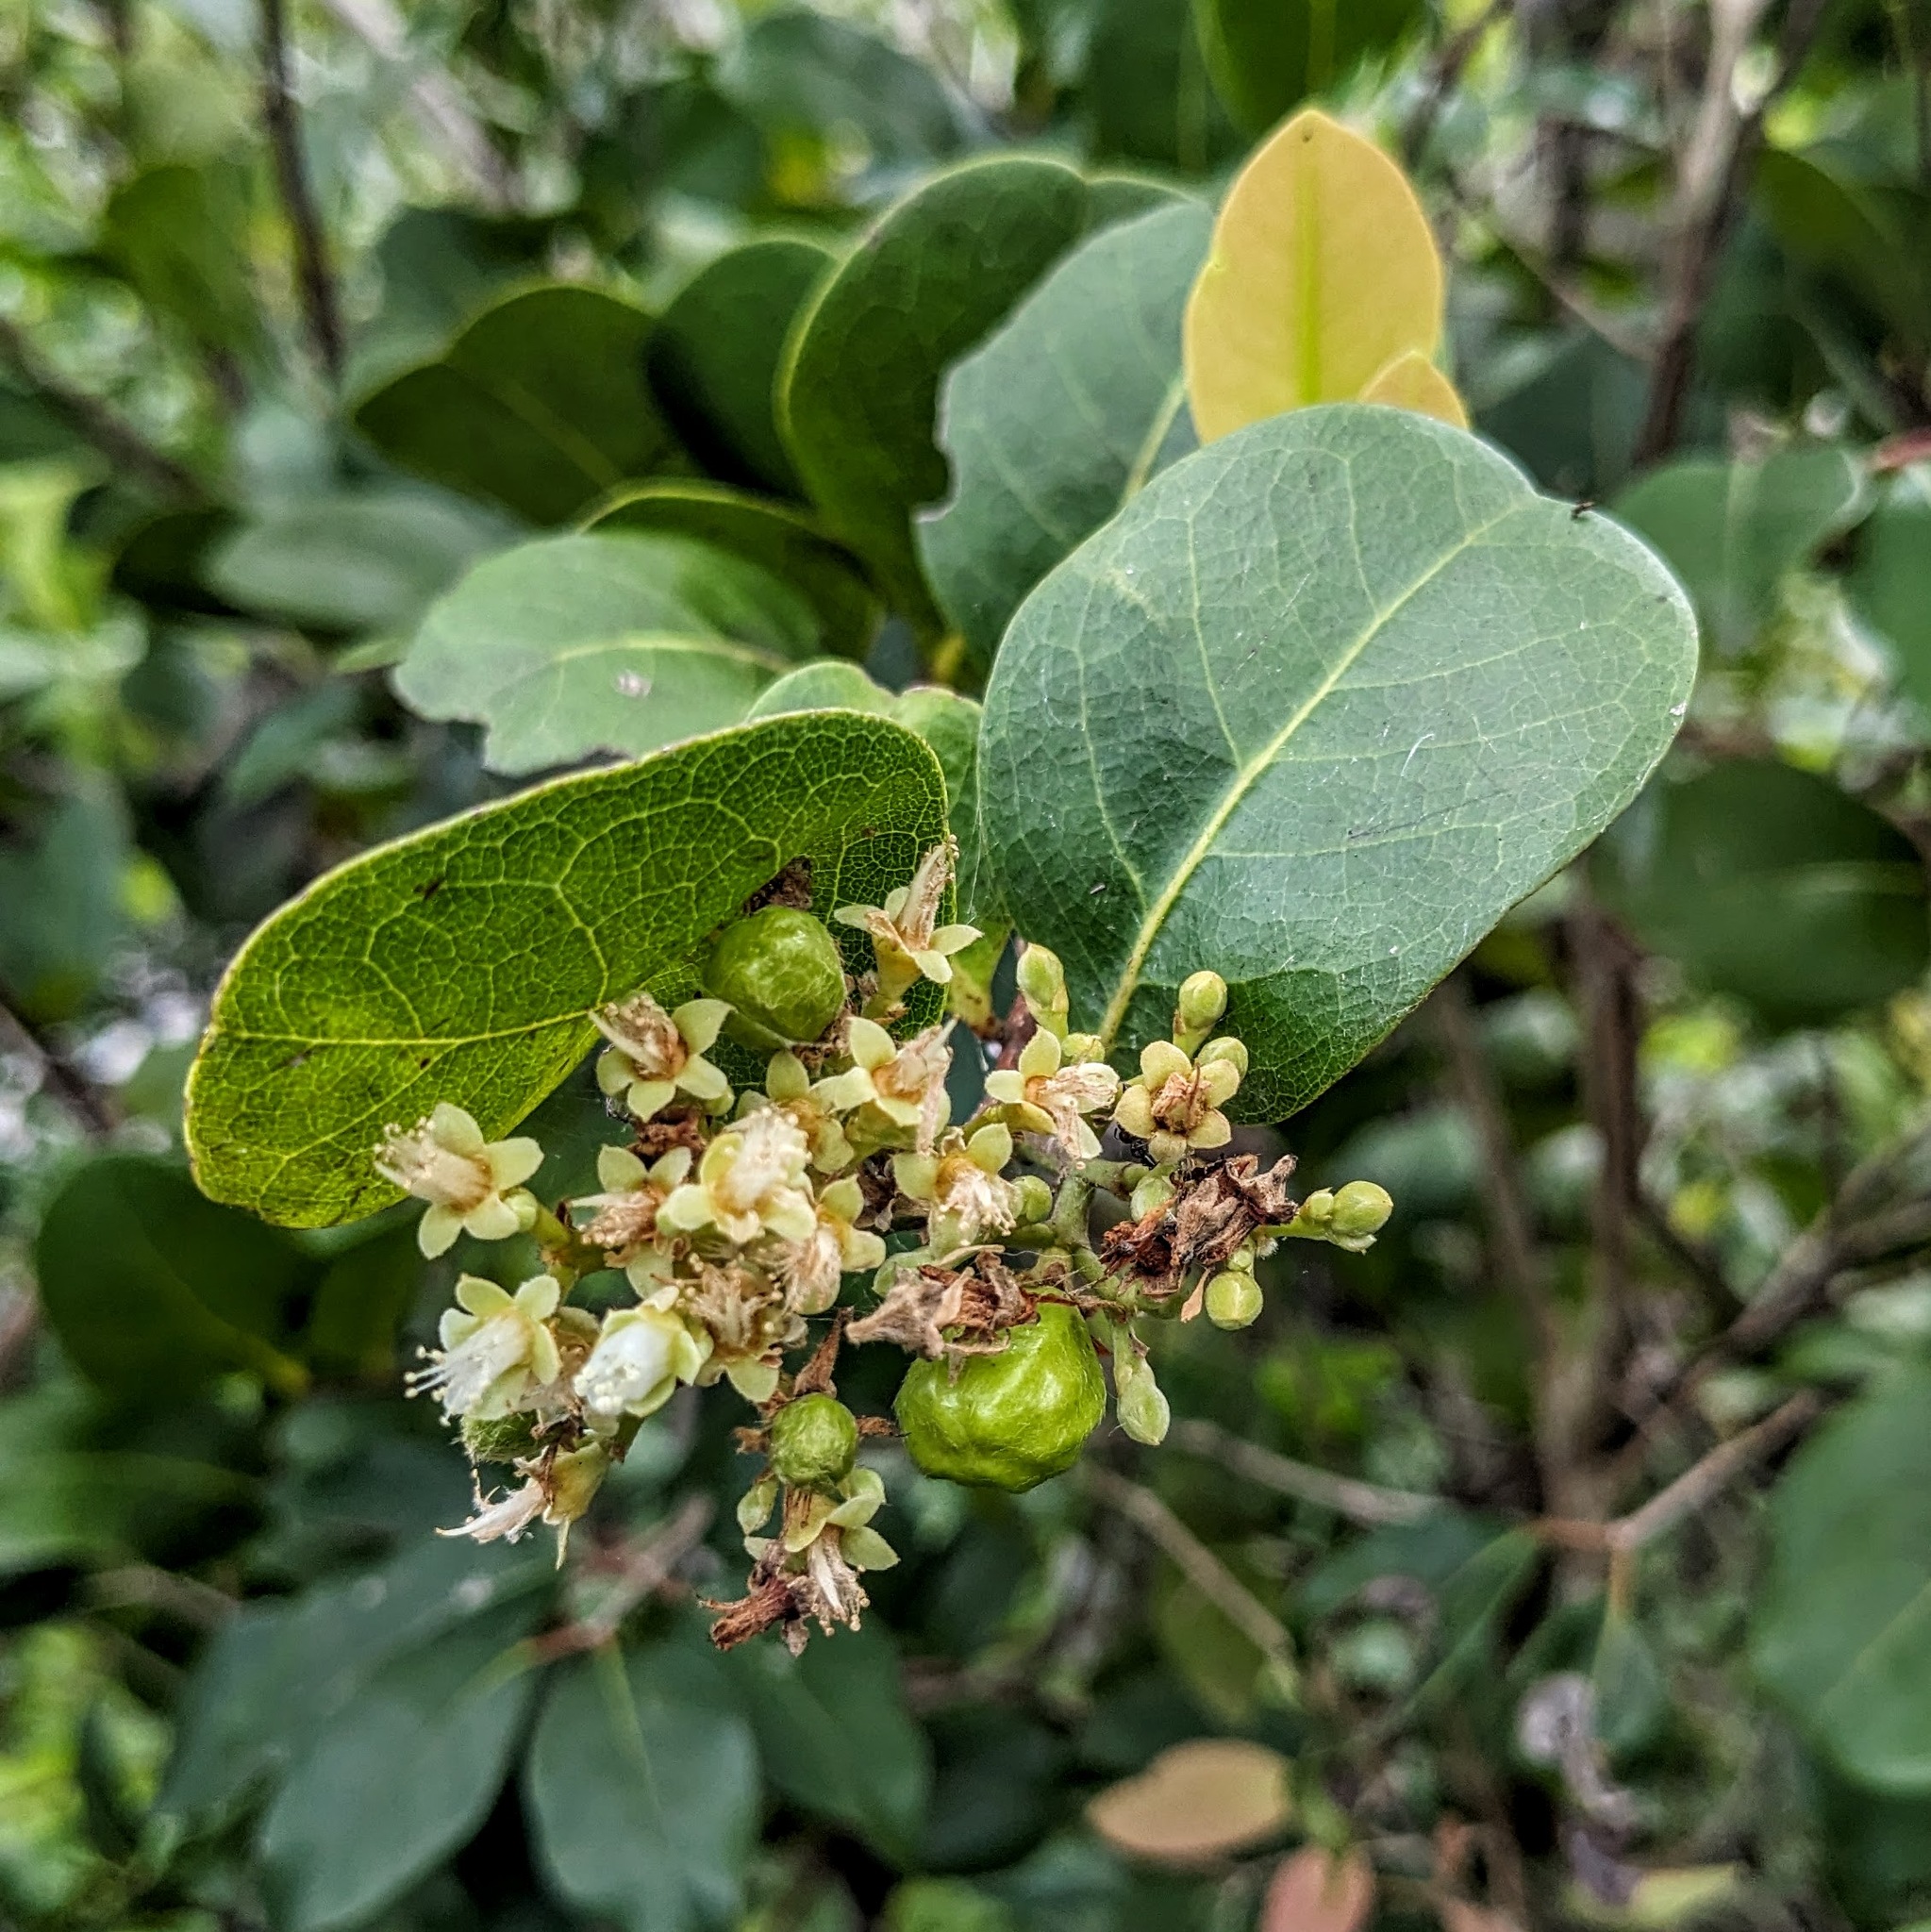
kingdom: Plantae
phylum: Tracheophyta
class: Magnoliopsida
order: Malpighiales
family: Chrysobalanaceae
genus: Chrysobalanus
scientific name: Chrysobalanus icaco
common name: Coco plum
